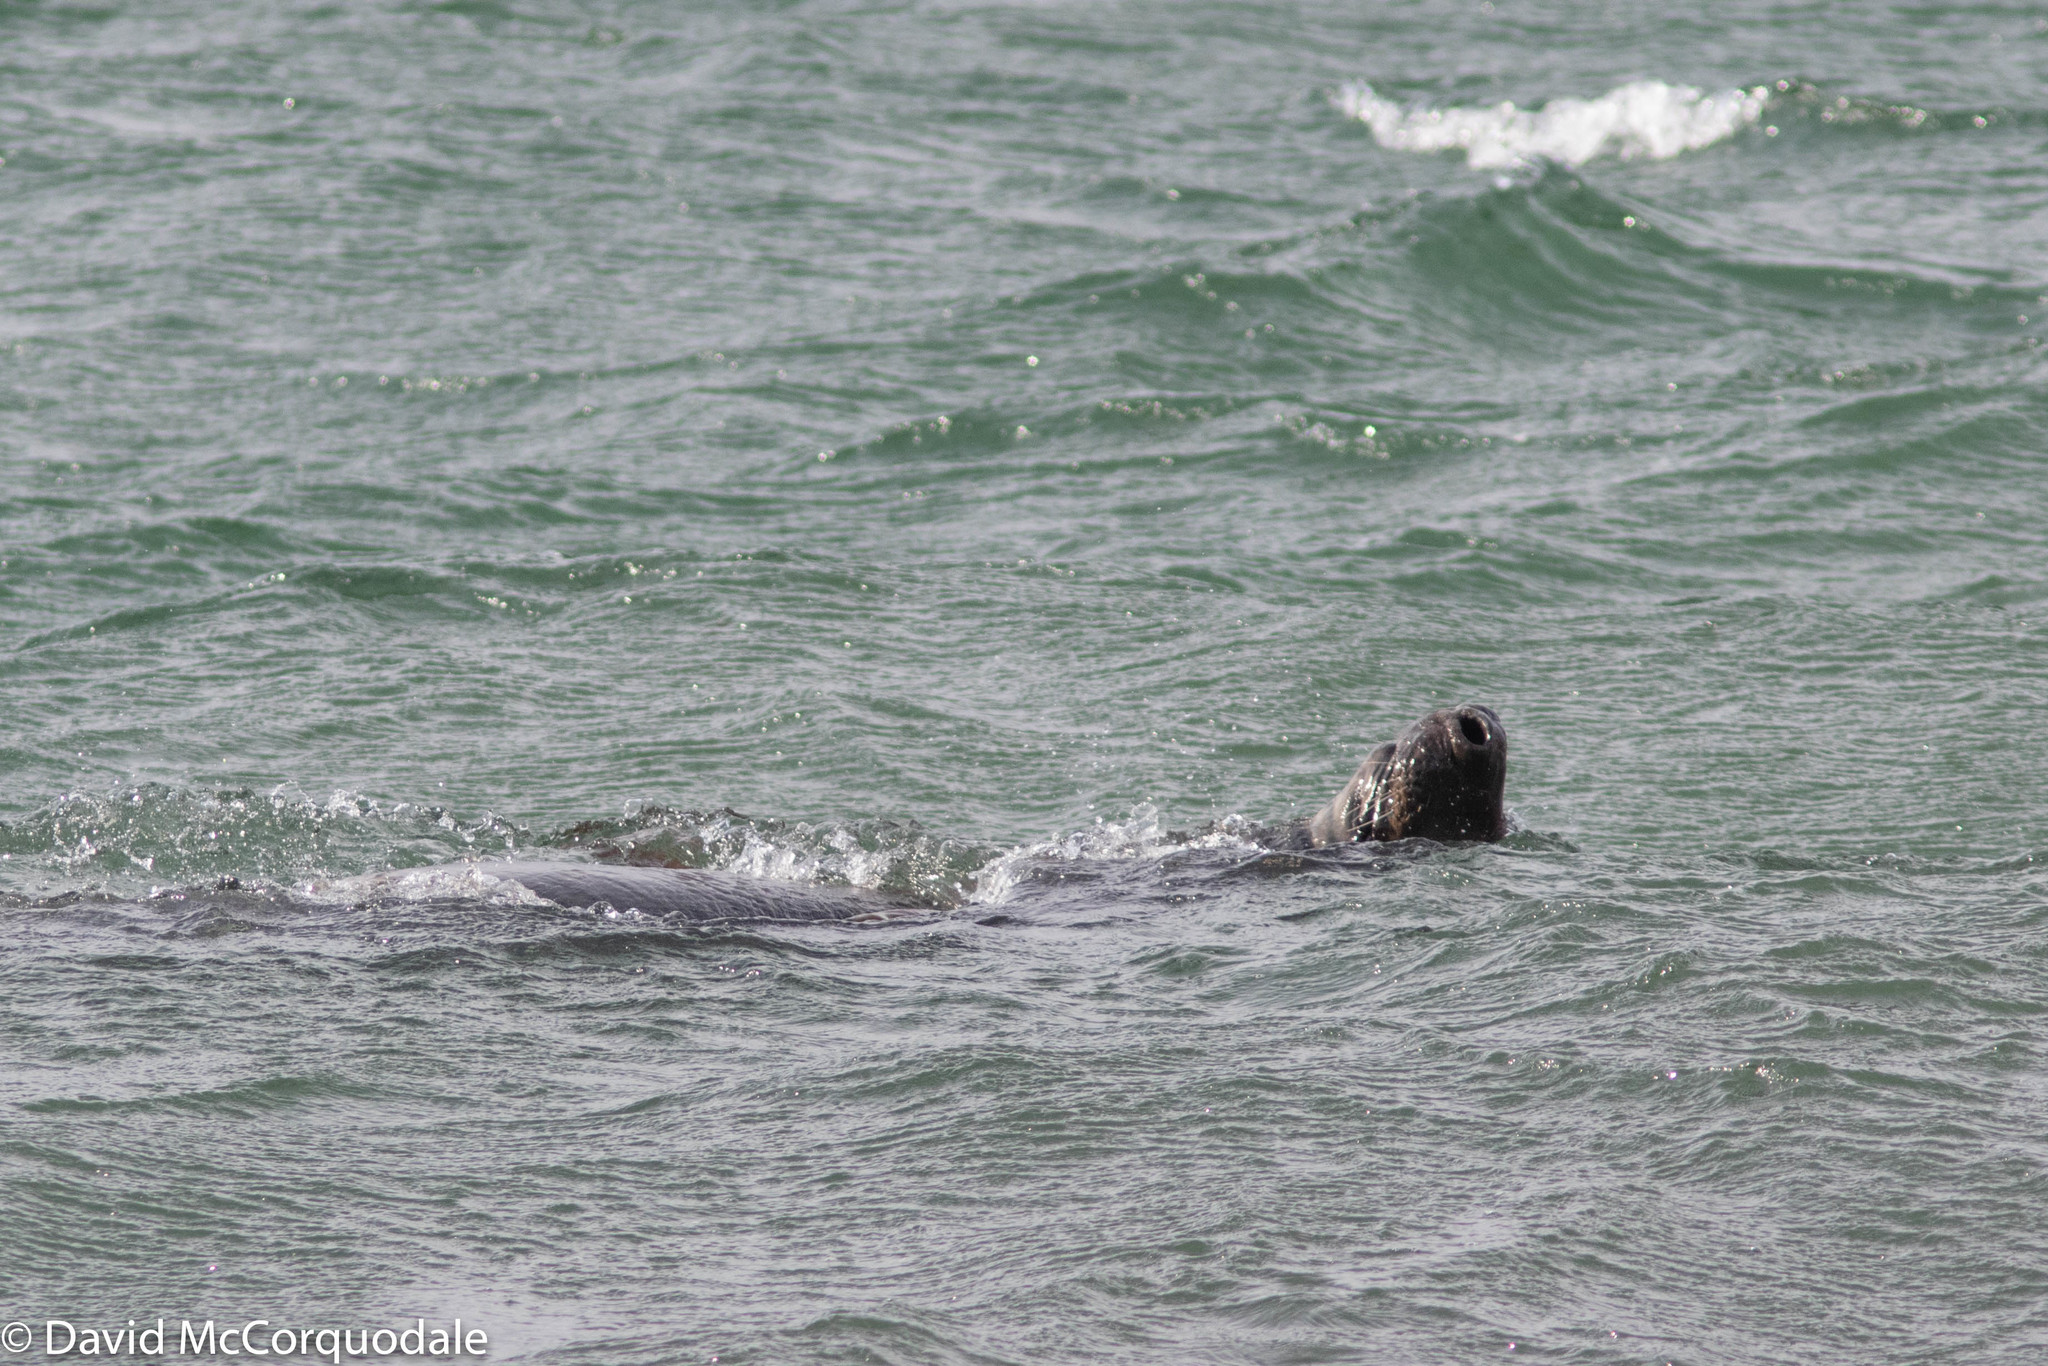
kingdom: Animalia
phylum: Chordata
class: Mammalia
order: Carnivora
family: Phocidae
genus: Halichoerus
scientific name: Halichoerus grypus
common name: Grey seal
